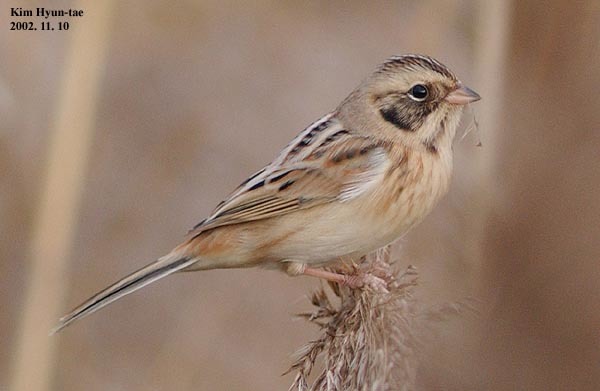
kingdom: Animalia
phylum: Chordata
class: Aves
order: Passeriformes
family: Emberizidae
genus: Emberiza
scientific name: Emberiza yessoensis
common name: Japanese reed bunting
